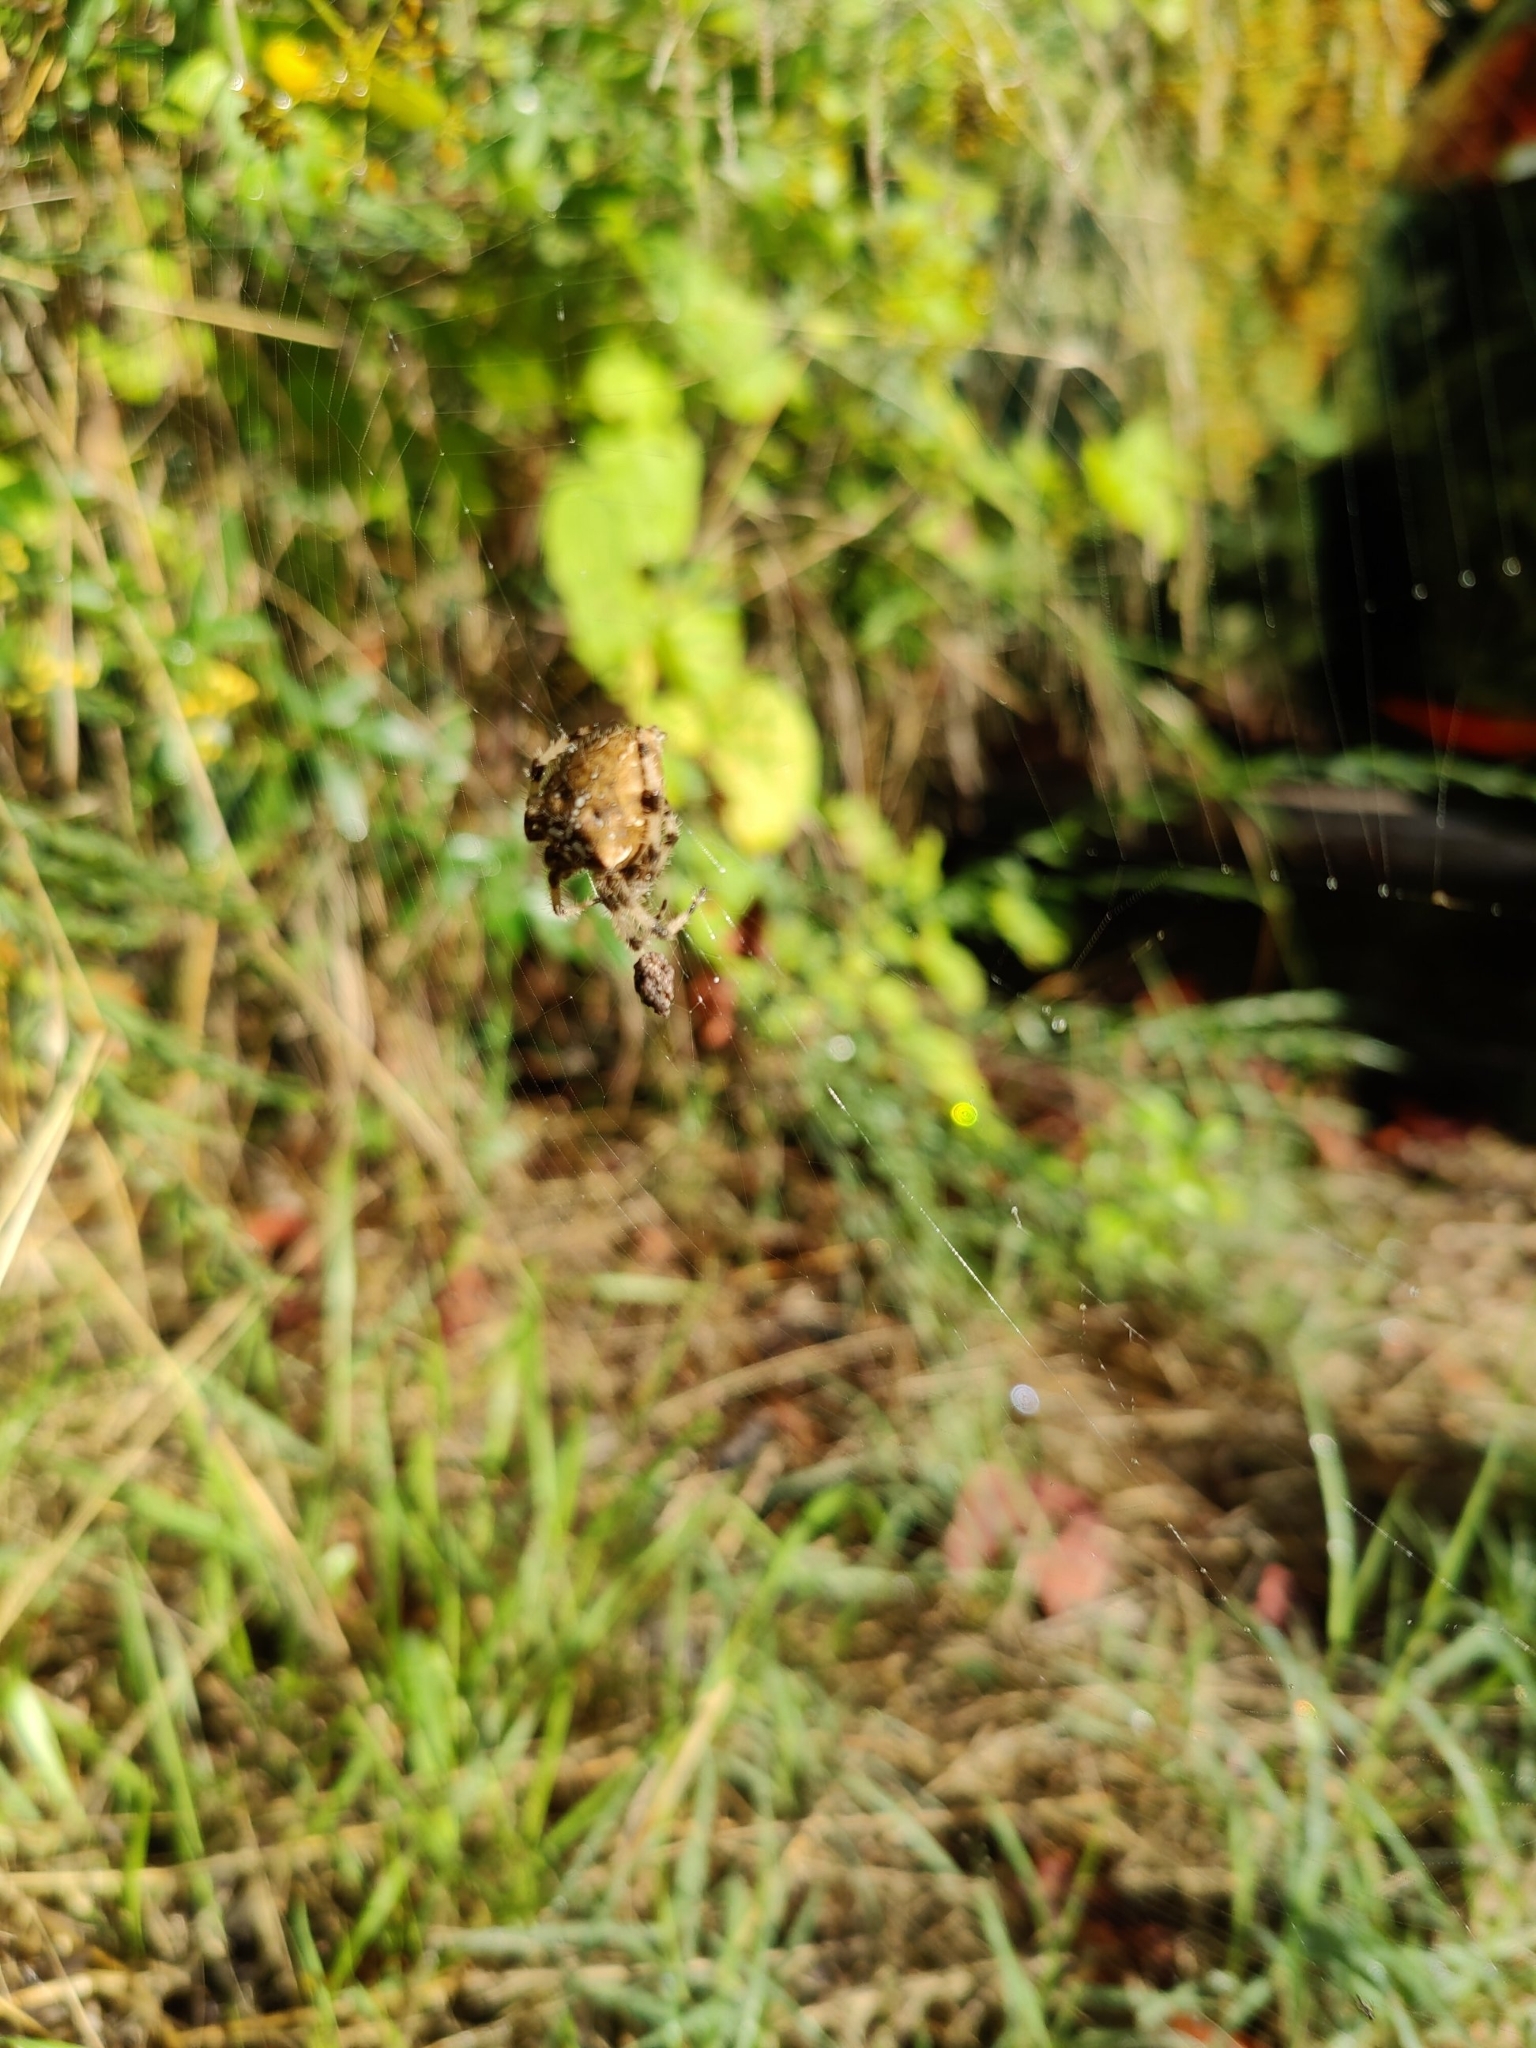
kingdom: Animalia
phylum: Arthropoda
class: Arachnida
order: Araneae
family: Araneidae
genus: Araneus
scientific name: Araneus pallidus
